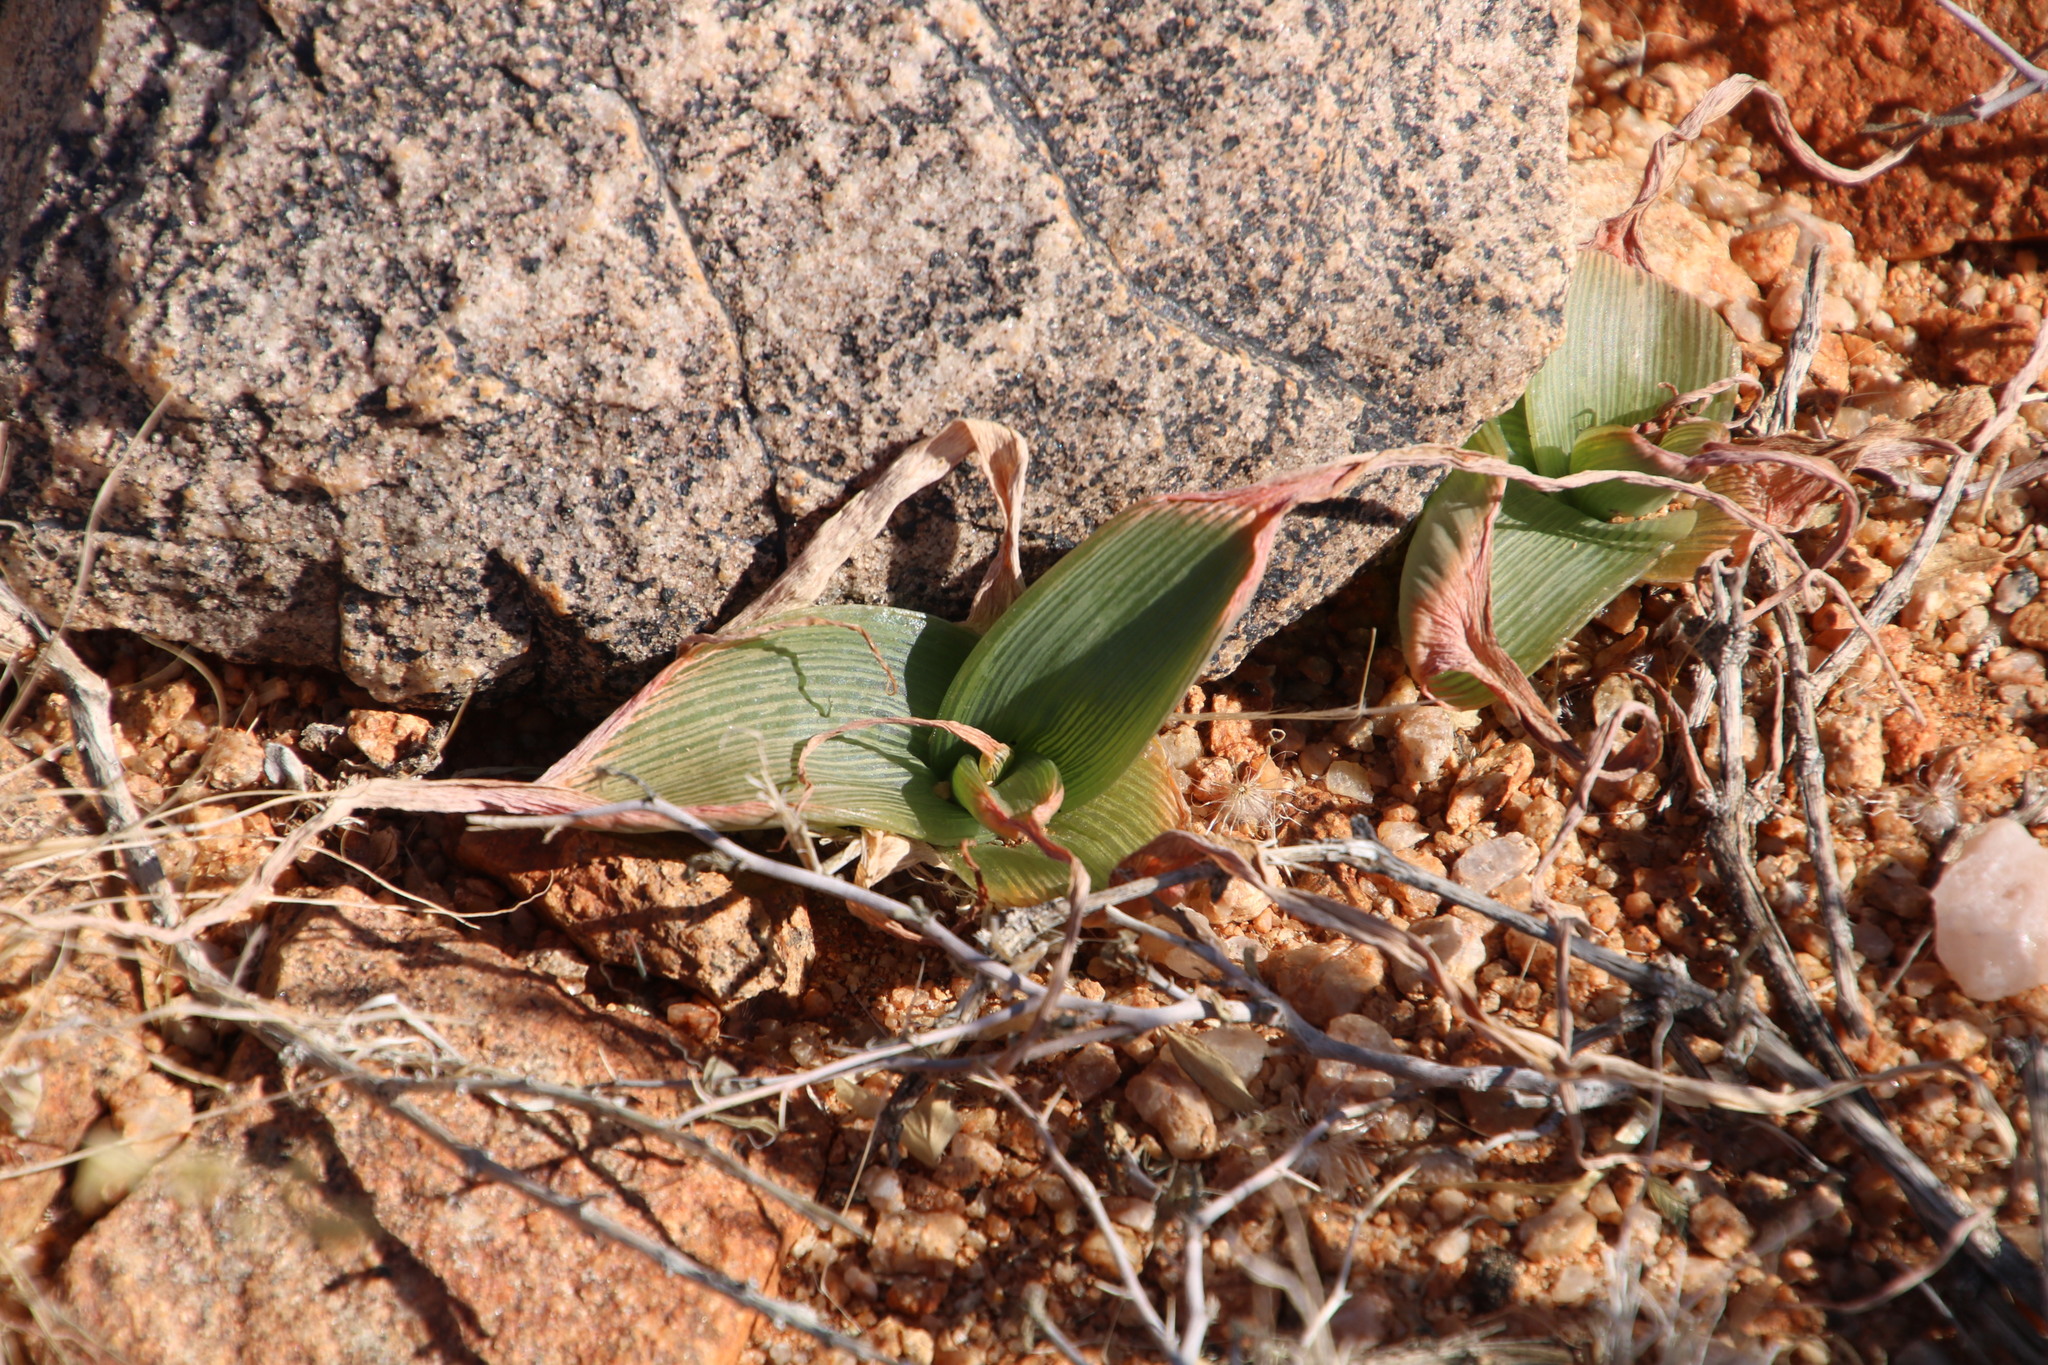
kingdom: Plantae
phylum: Tracheophyta
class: Liliopsida
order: Asparagales
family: Asphodelaceae
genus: Bulbine
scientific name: Bulbine striata
